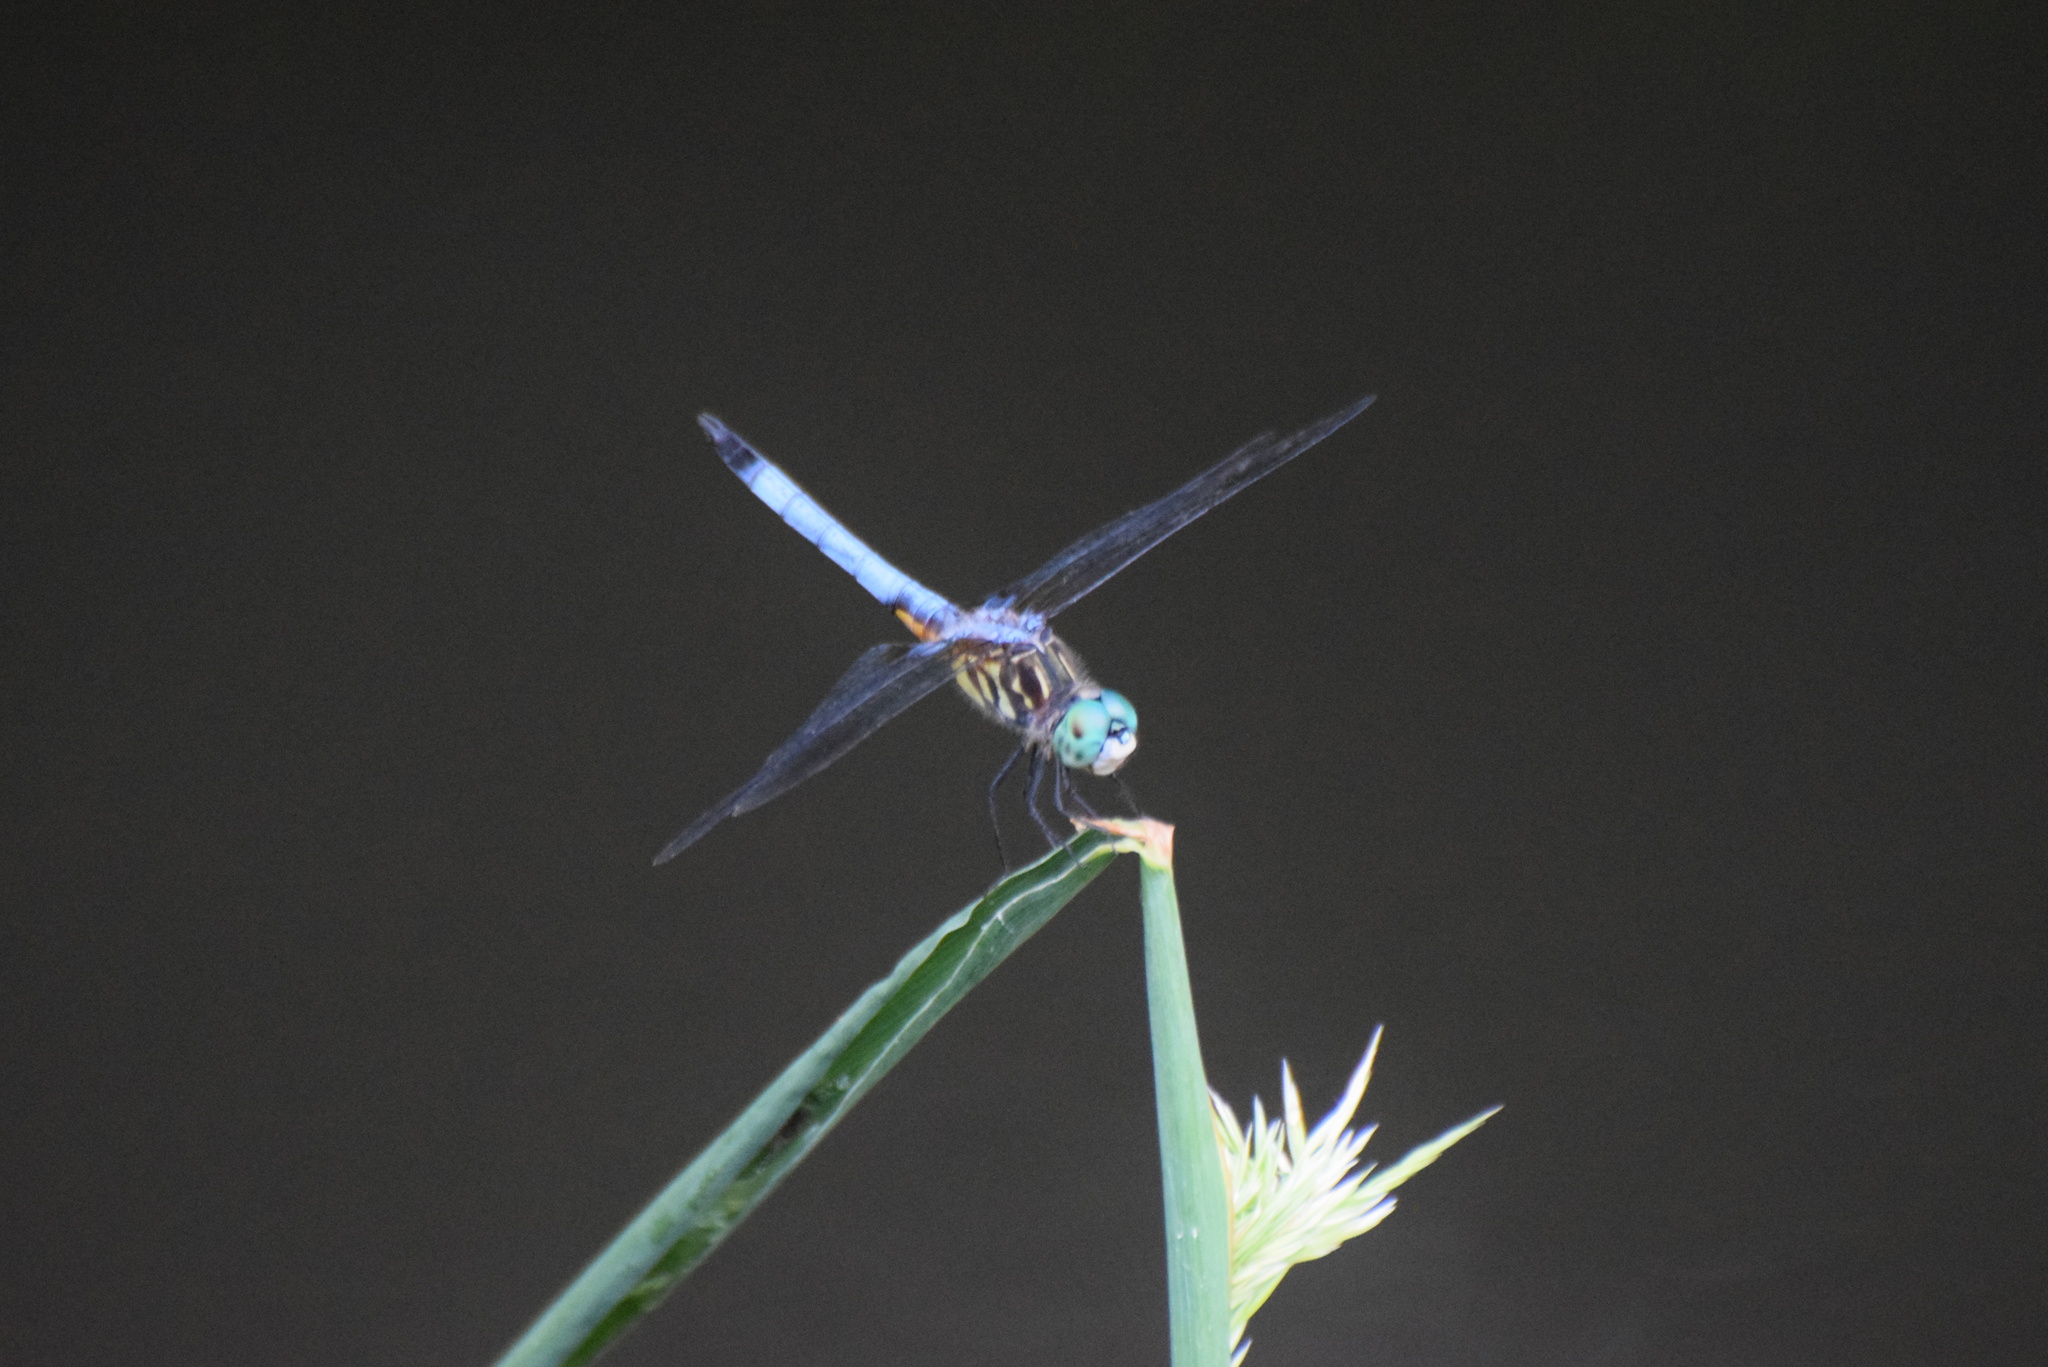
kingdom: Animalia
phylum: Arthropoda
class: Insecta
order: Odonata
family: Libellulidae
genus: Pachydiplax
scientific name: Pachydiplax longipennis
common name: Blue dasher
